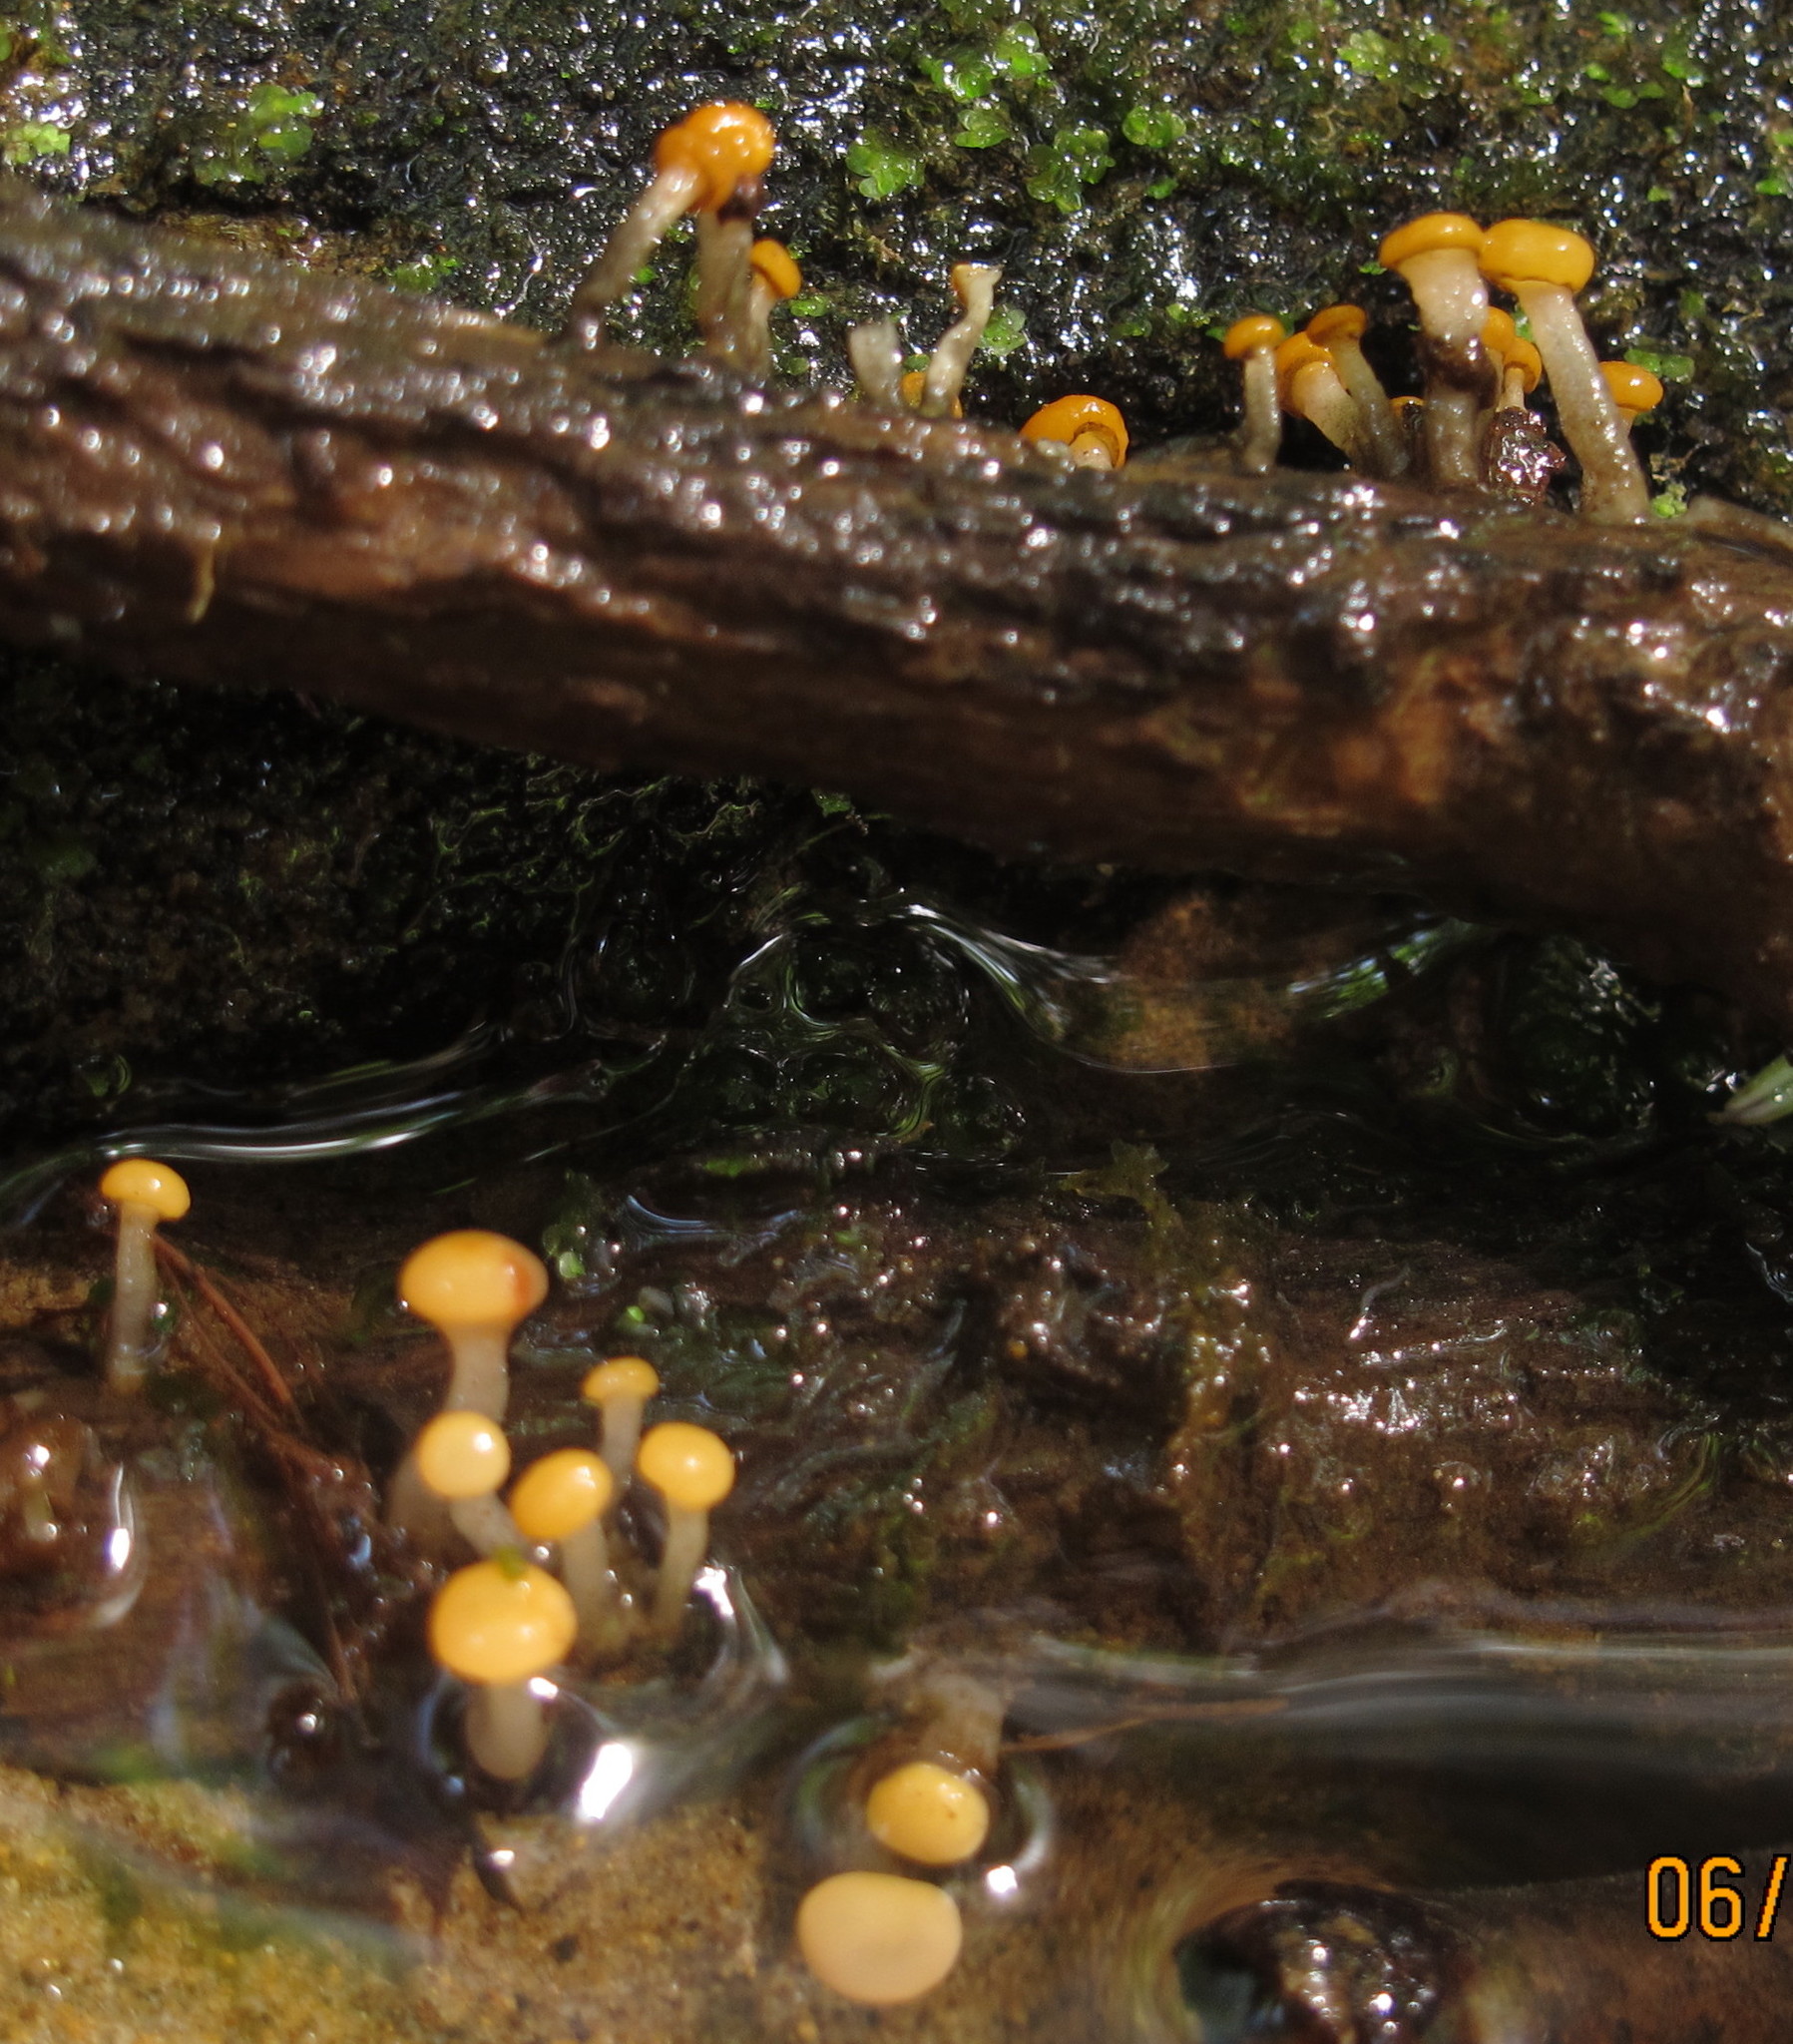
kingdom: Fungi
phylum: Ascomycota
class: Leotiomycetes
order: Helotiales
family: Vibrisseaceae
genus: Vibrissea
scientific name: Vibrissea truncorum
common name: Stream beacon
